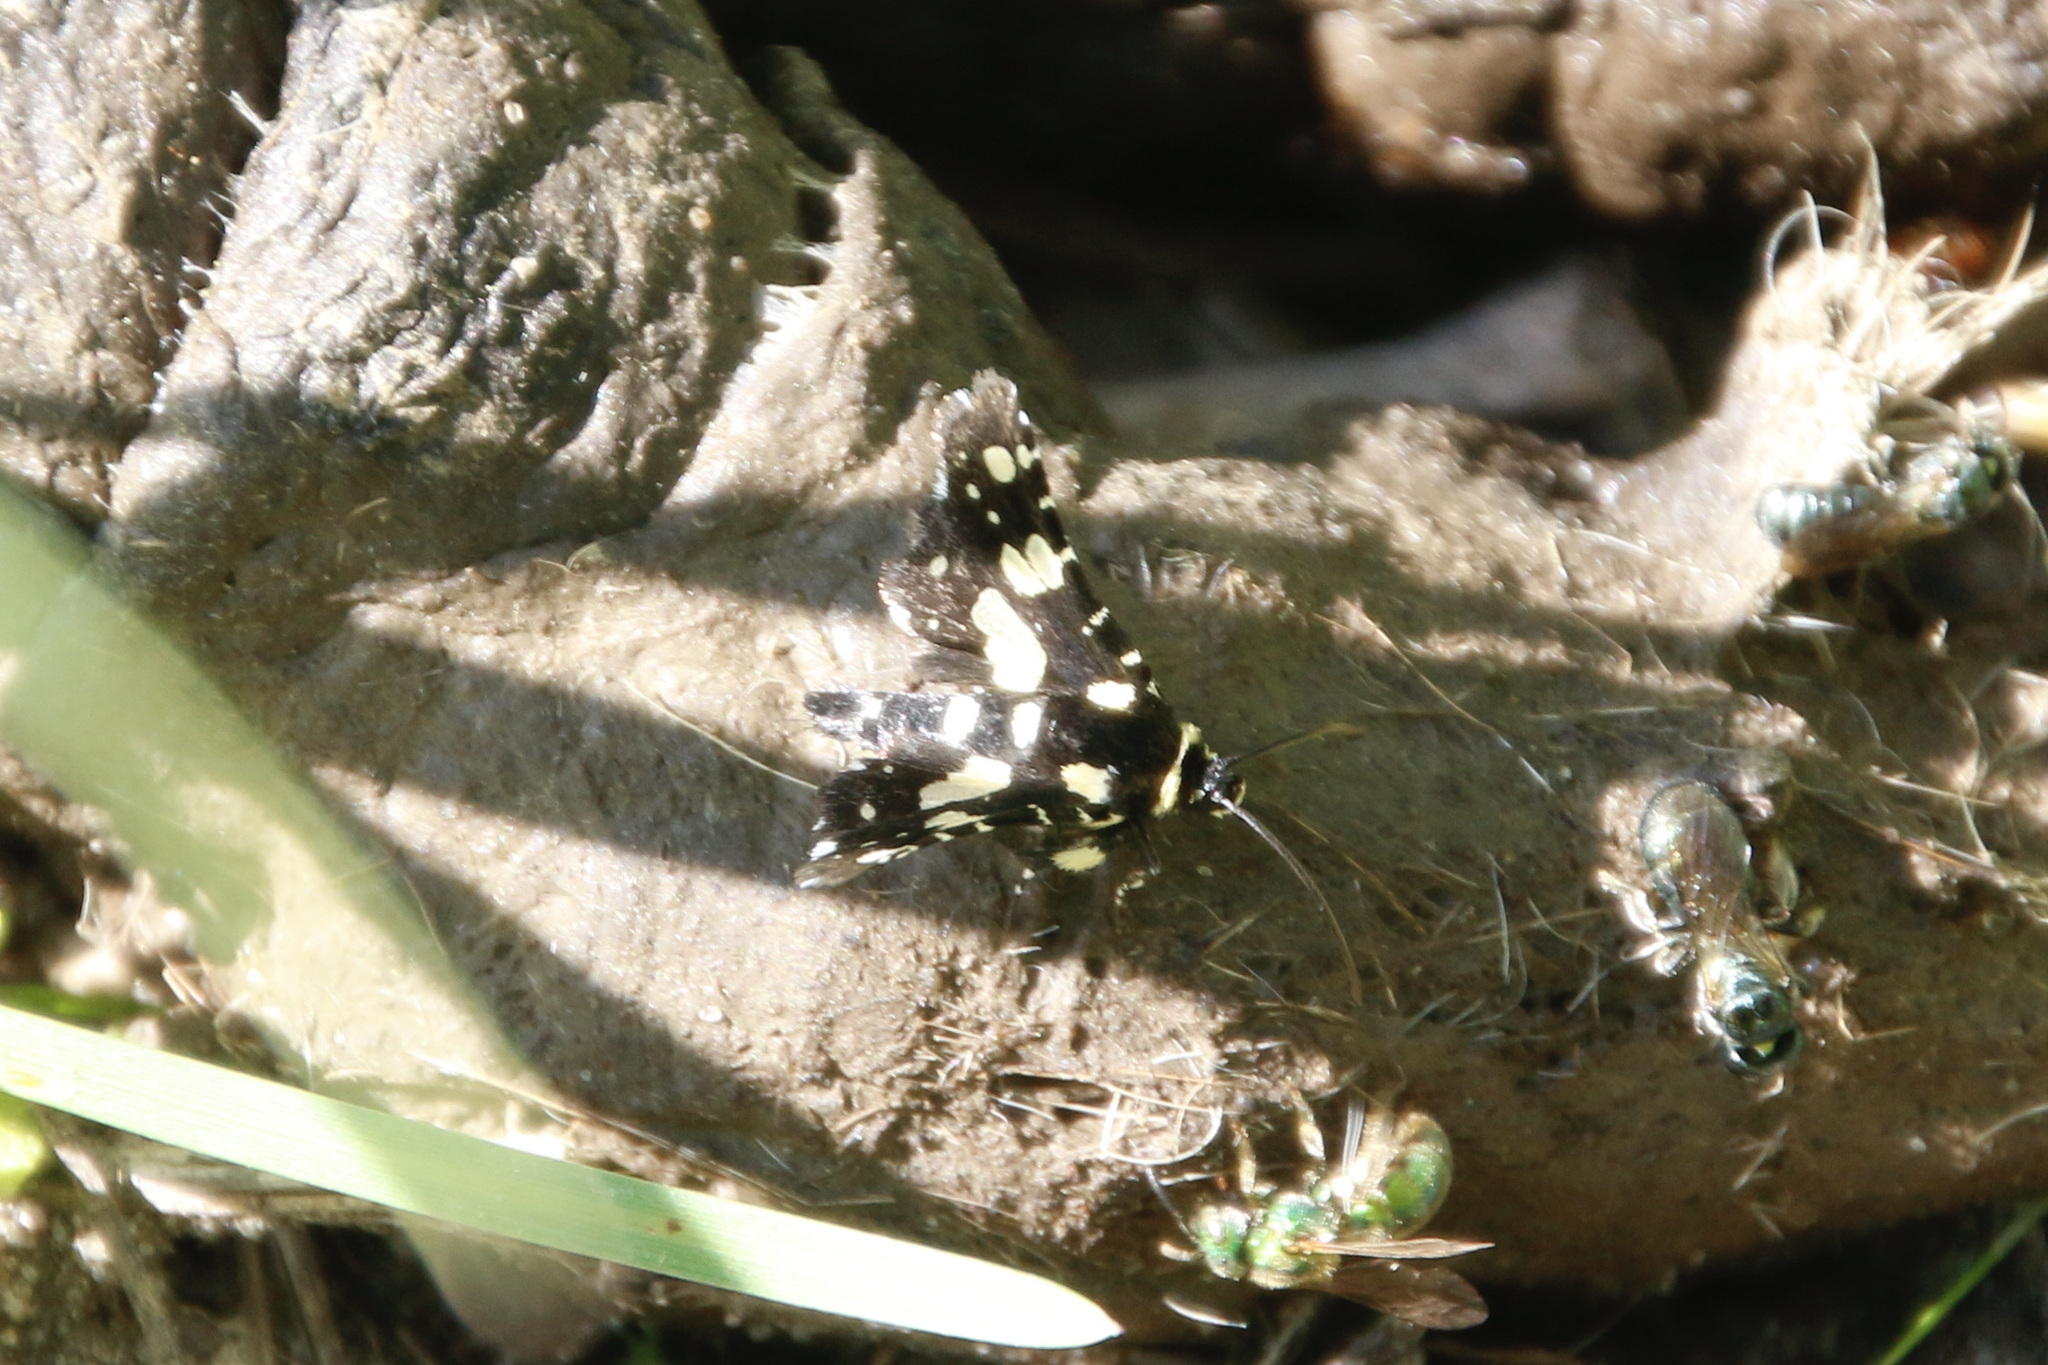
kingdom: Animalia
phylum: Arthropoda
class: Insecta
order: Lepidoptera
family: Thyrididae
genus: Pseudothyris
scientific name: Pseudothyris sepulchralis
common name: Mournful thyris moth
